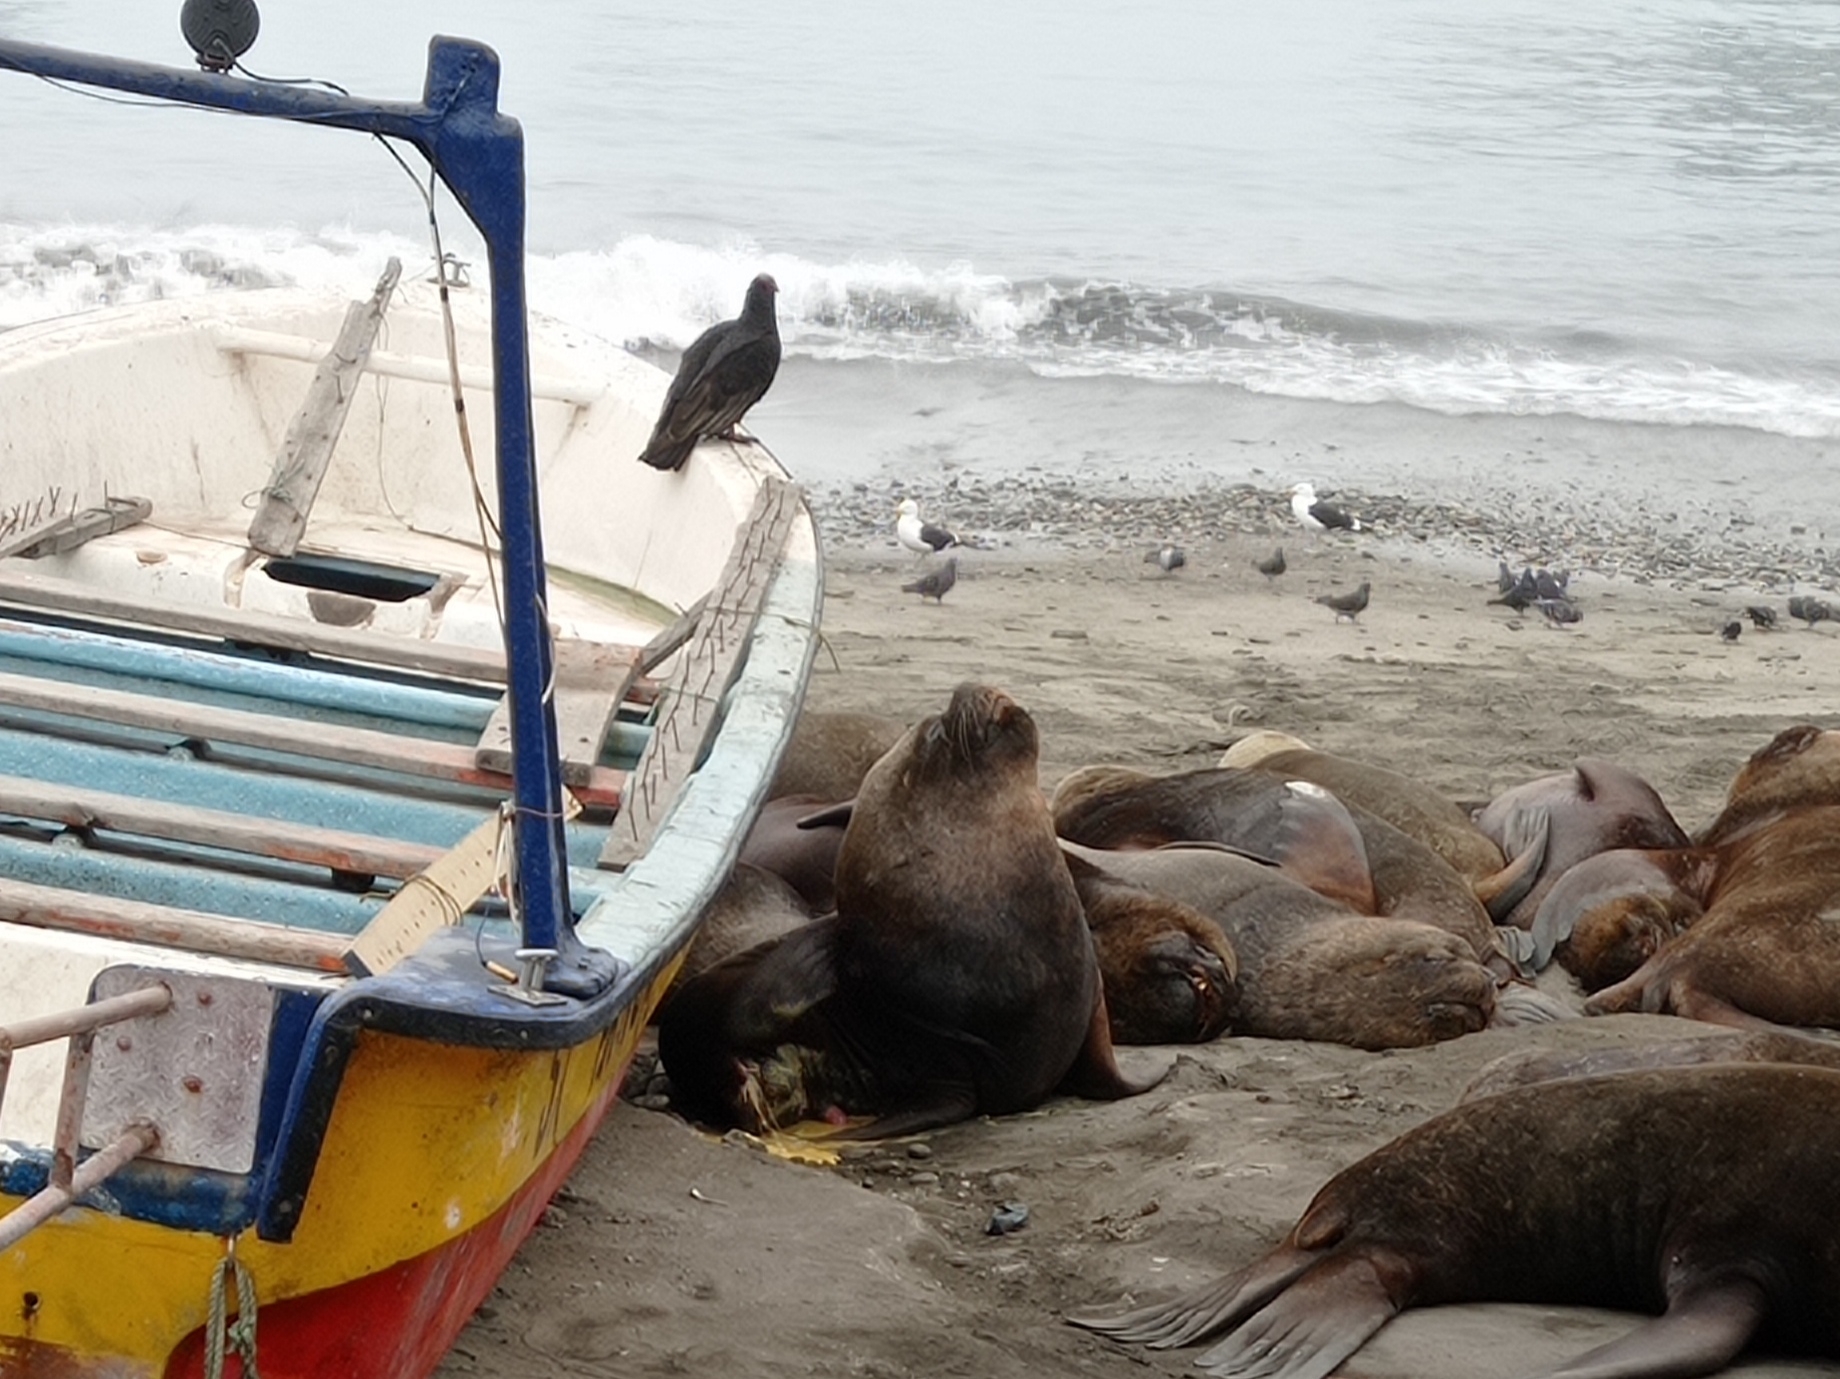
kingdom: Animalia
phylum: Chordata
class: Mammalia
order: Carnivora
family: Otariidae
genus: Otaria
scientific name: Otaria byronia
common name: South american sea lion
